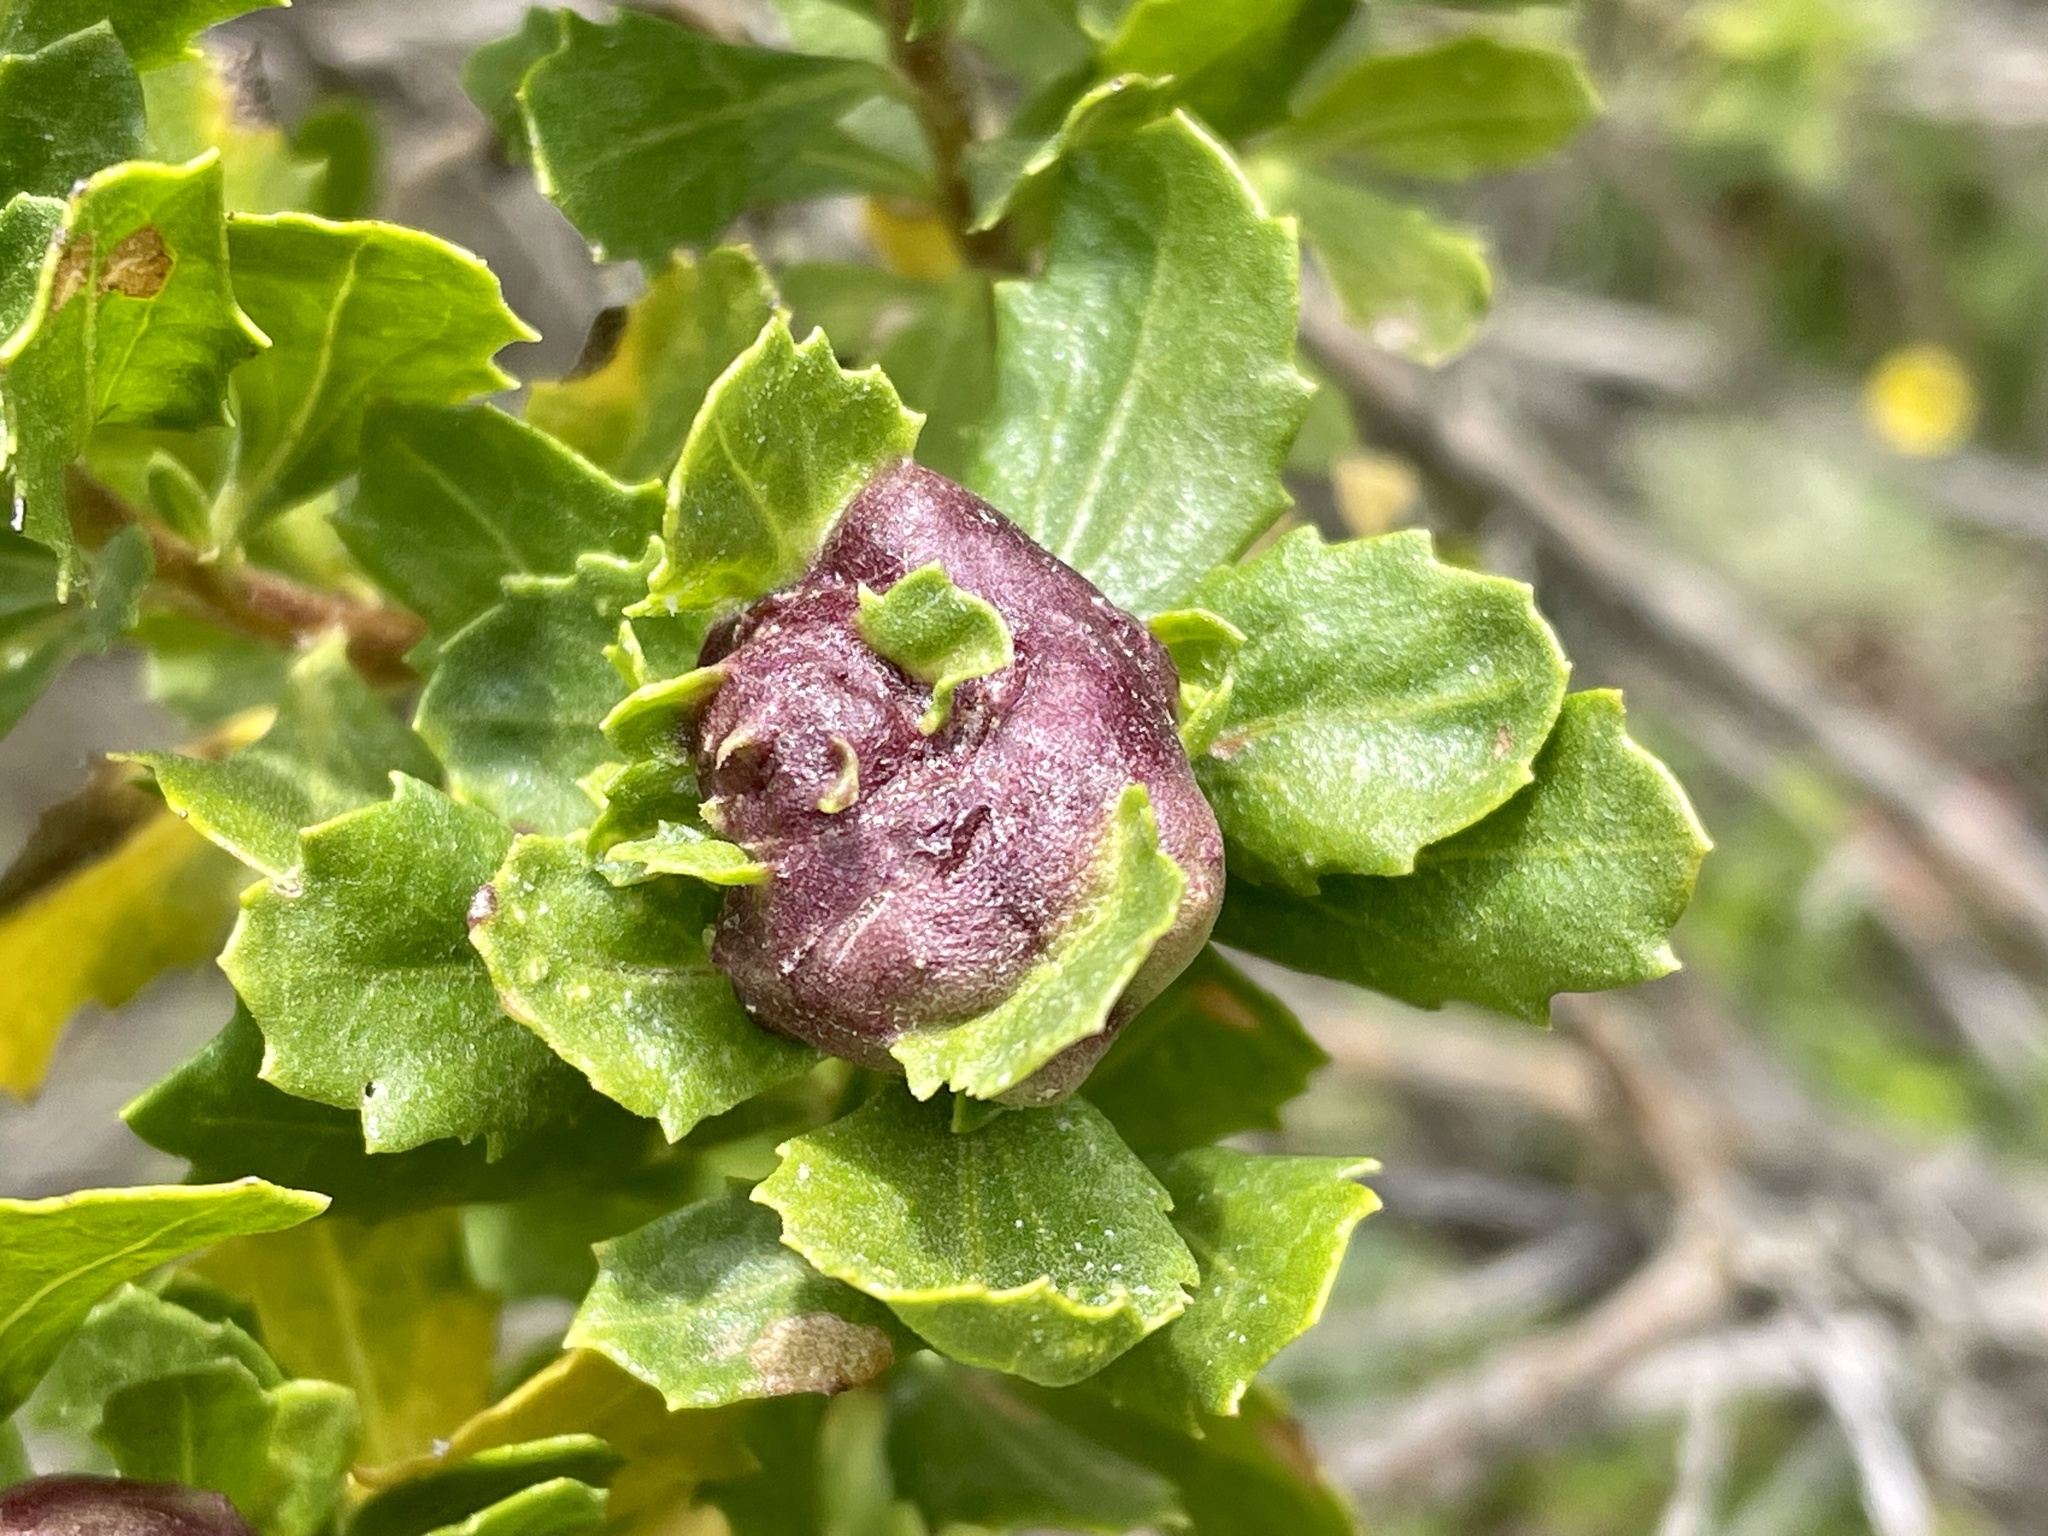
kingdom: Plantae
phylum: Tracheophyta
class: Magnoliopsida
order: Asterales
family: Asteraceae
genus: Baccharis
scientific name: Baccharis pilularis
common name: Coyotebrush
